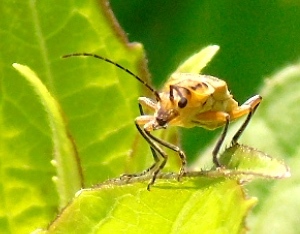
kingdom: Animalia
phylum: Arthropoda
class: Insecta
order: Coleoptera
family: Cantharidae
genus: Chauliognathus
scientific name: Chauliognathus
